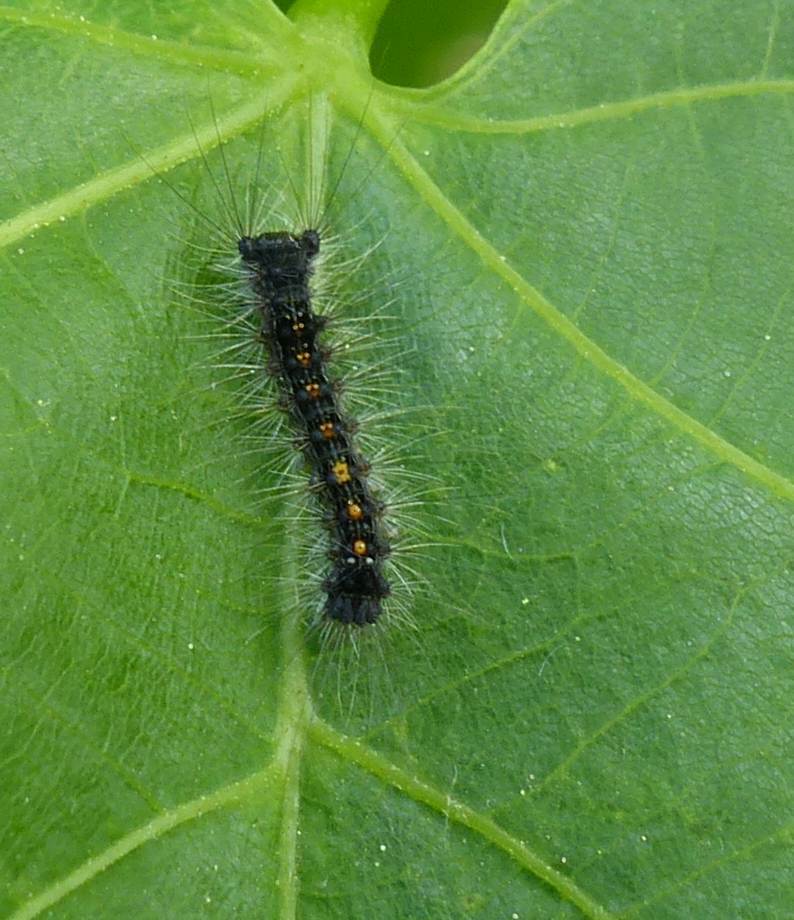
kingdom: Animalia
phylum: Arthropoda
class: Insecta
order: Lepidoptera
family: Erebidae
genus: Lymantria
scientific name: Lymantria dispar
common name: Gypsy moth
